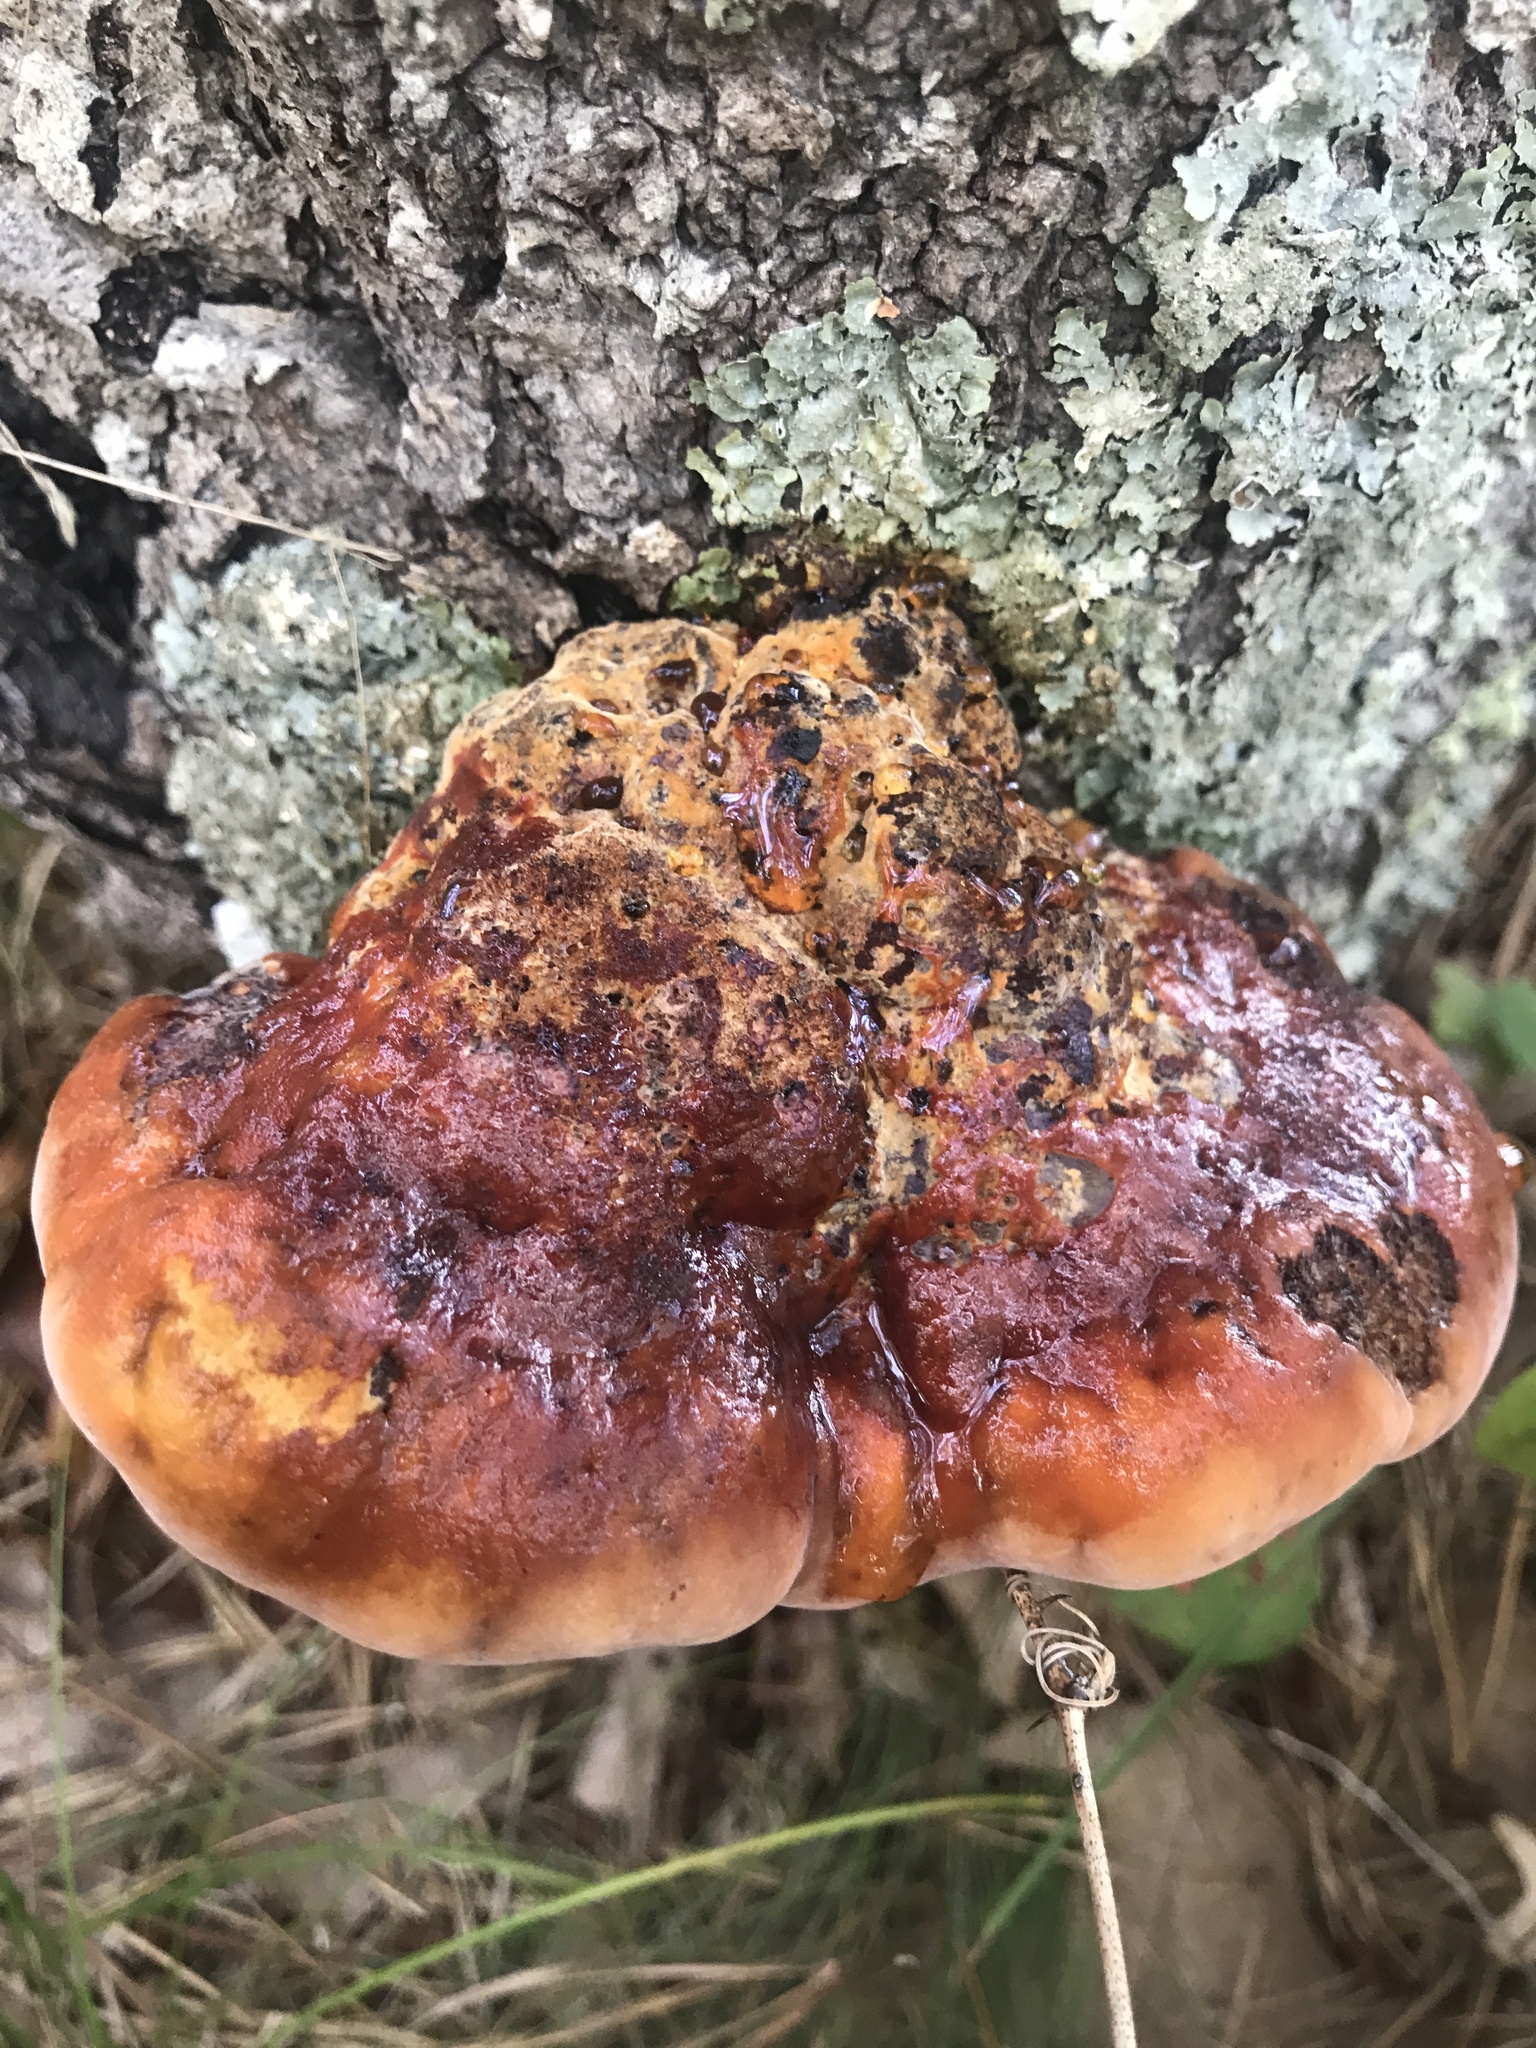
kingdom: Fungi
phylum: Basidiomycota
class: Agaricomycetes
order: Hymenochaetales
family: Hymenochaetaceae
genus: Inonotus
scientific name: Inonotus hispidus
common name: Shaggy bracket
